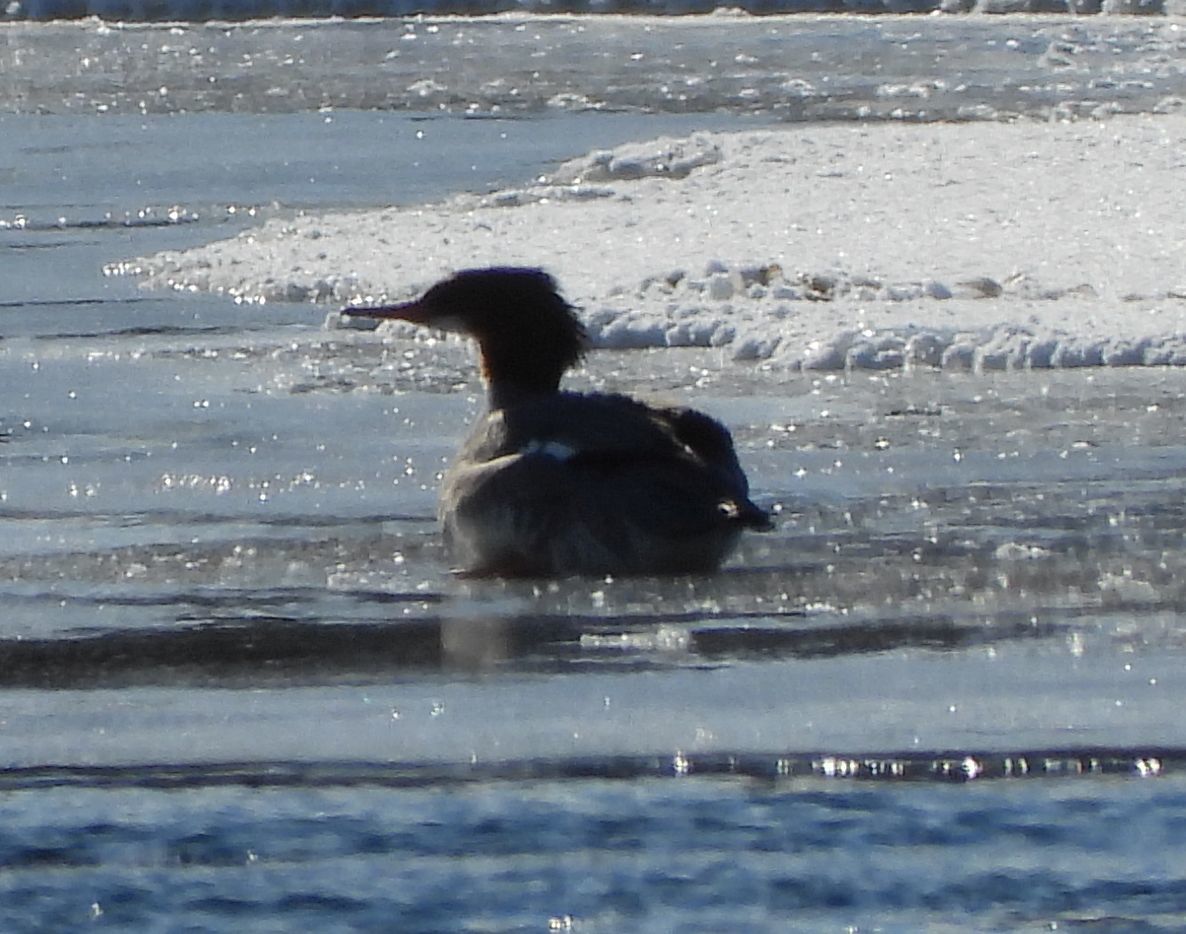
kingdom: Animalia
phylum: Chordata
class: Aves
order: Anseriformes
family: Anatidae
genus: Mergus
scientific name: Mergus merganser
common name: Common merganser
